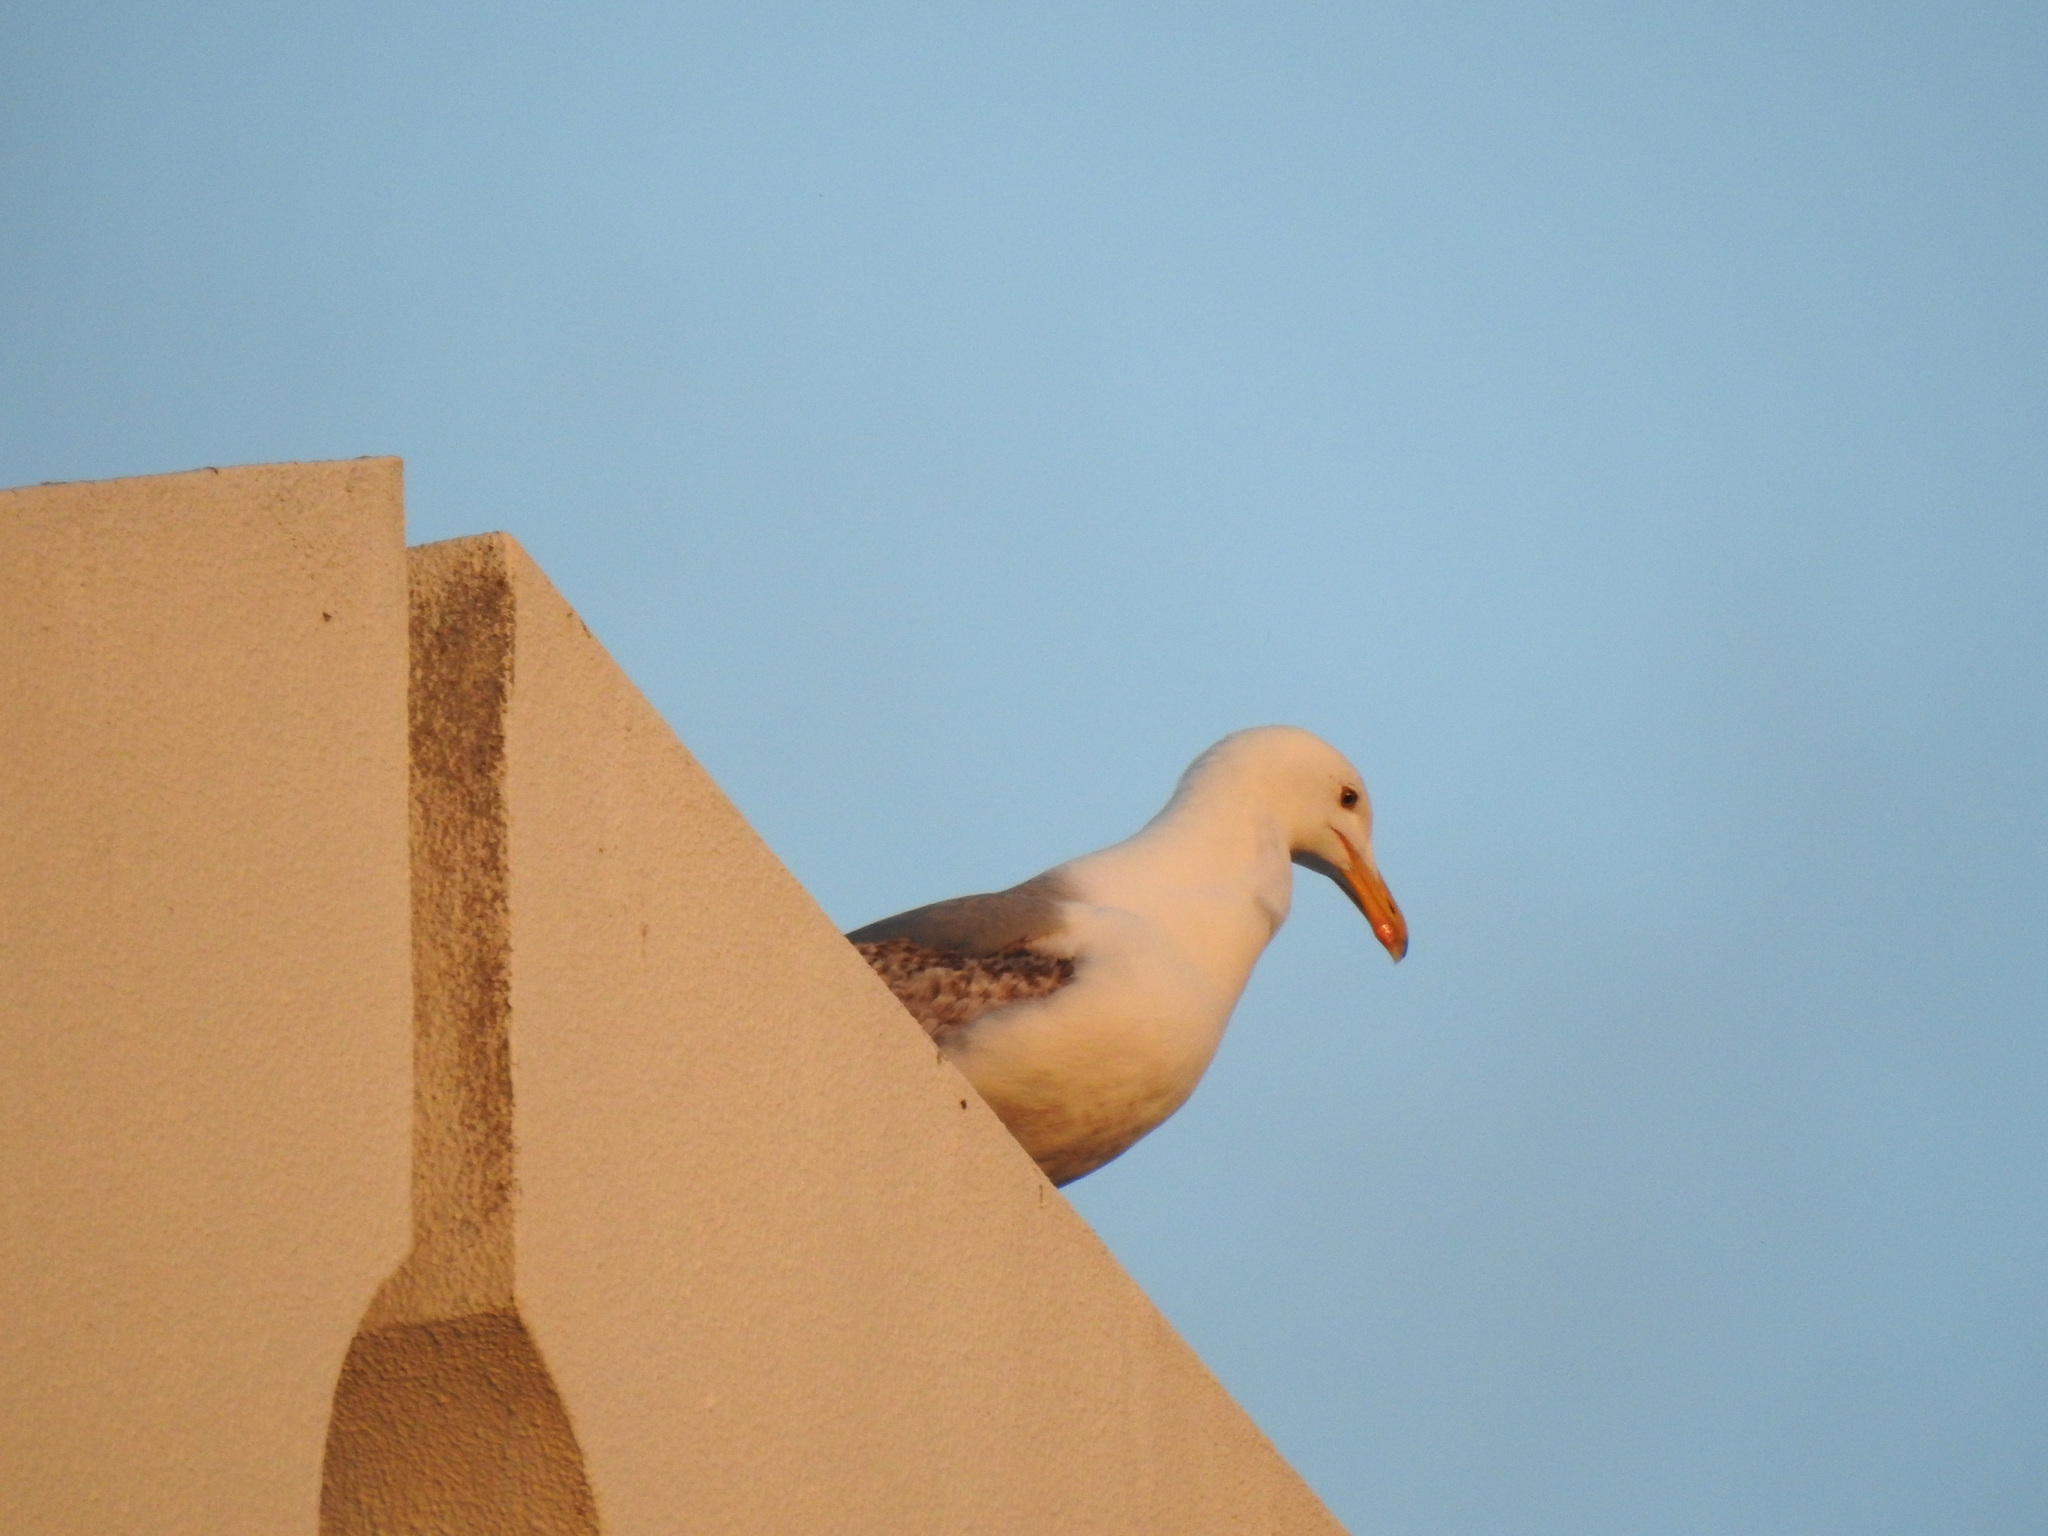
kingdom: Animalia
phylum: Chordata
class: Aves
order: Charadriiformes
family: Laridae
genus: Larus
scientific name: Larus michahellis
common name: Yellow-legged gull
